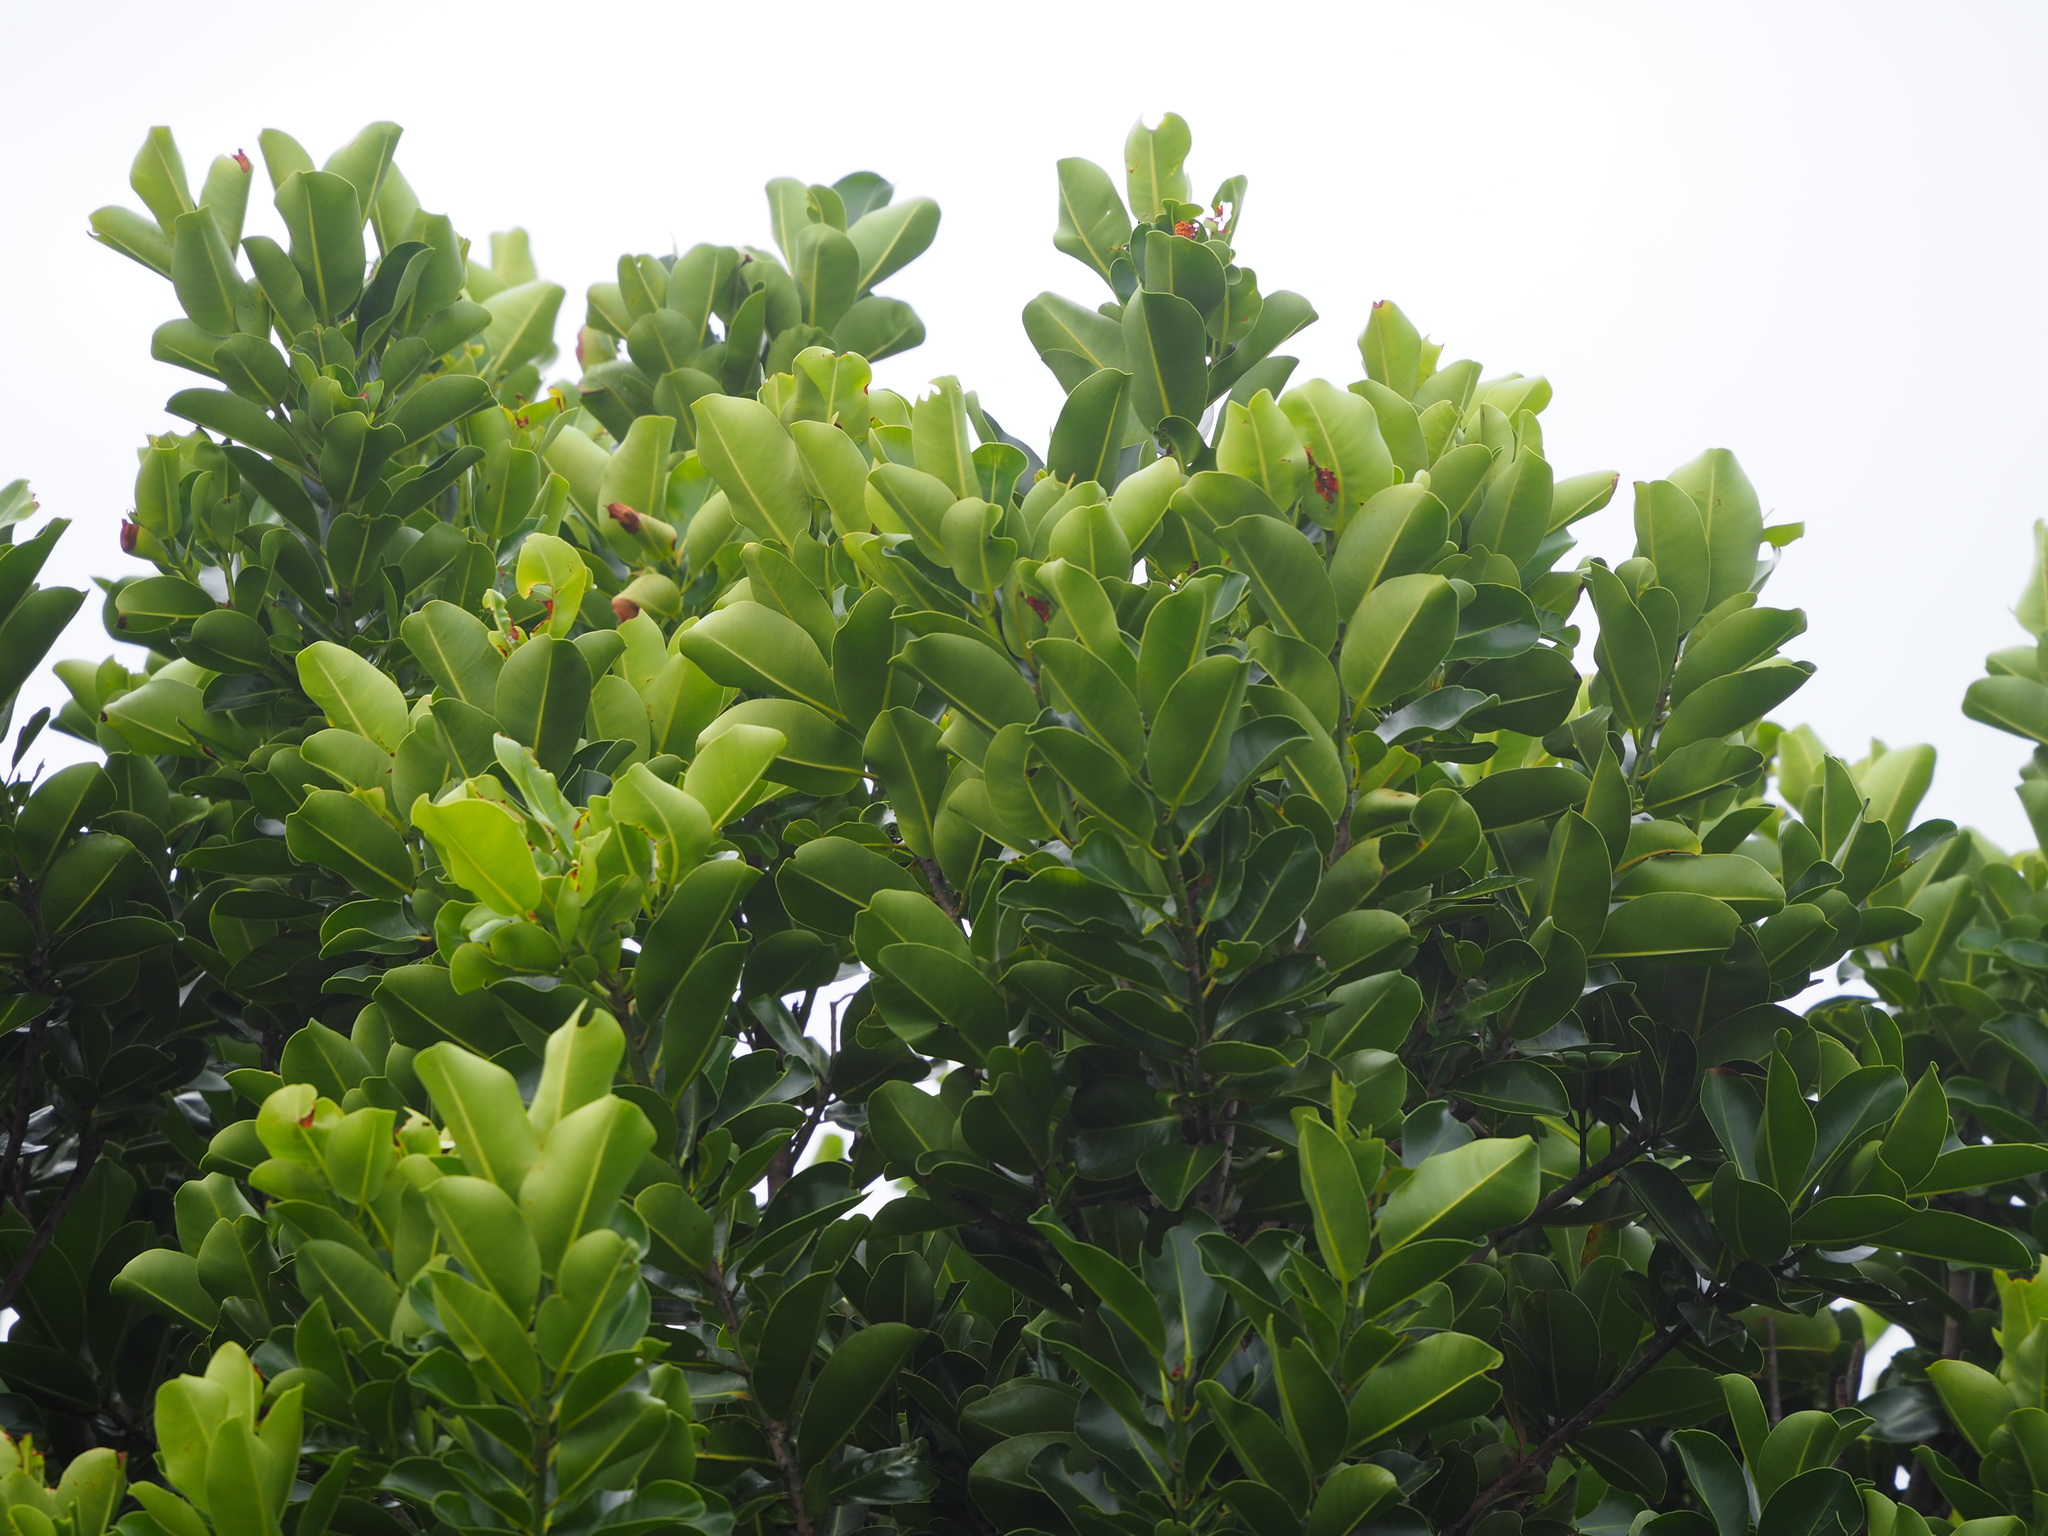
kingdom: Plantae
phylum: Tracheophyta
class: Magnoliopsida
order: Malpighiales
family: Calophyllaceae
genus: Calophyllum
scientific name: Calophyllum inophyllum
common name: Alexandrian laurel
